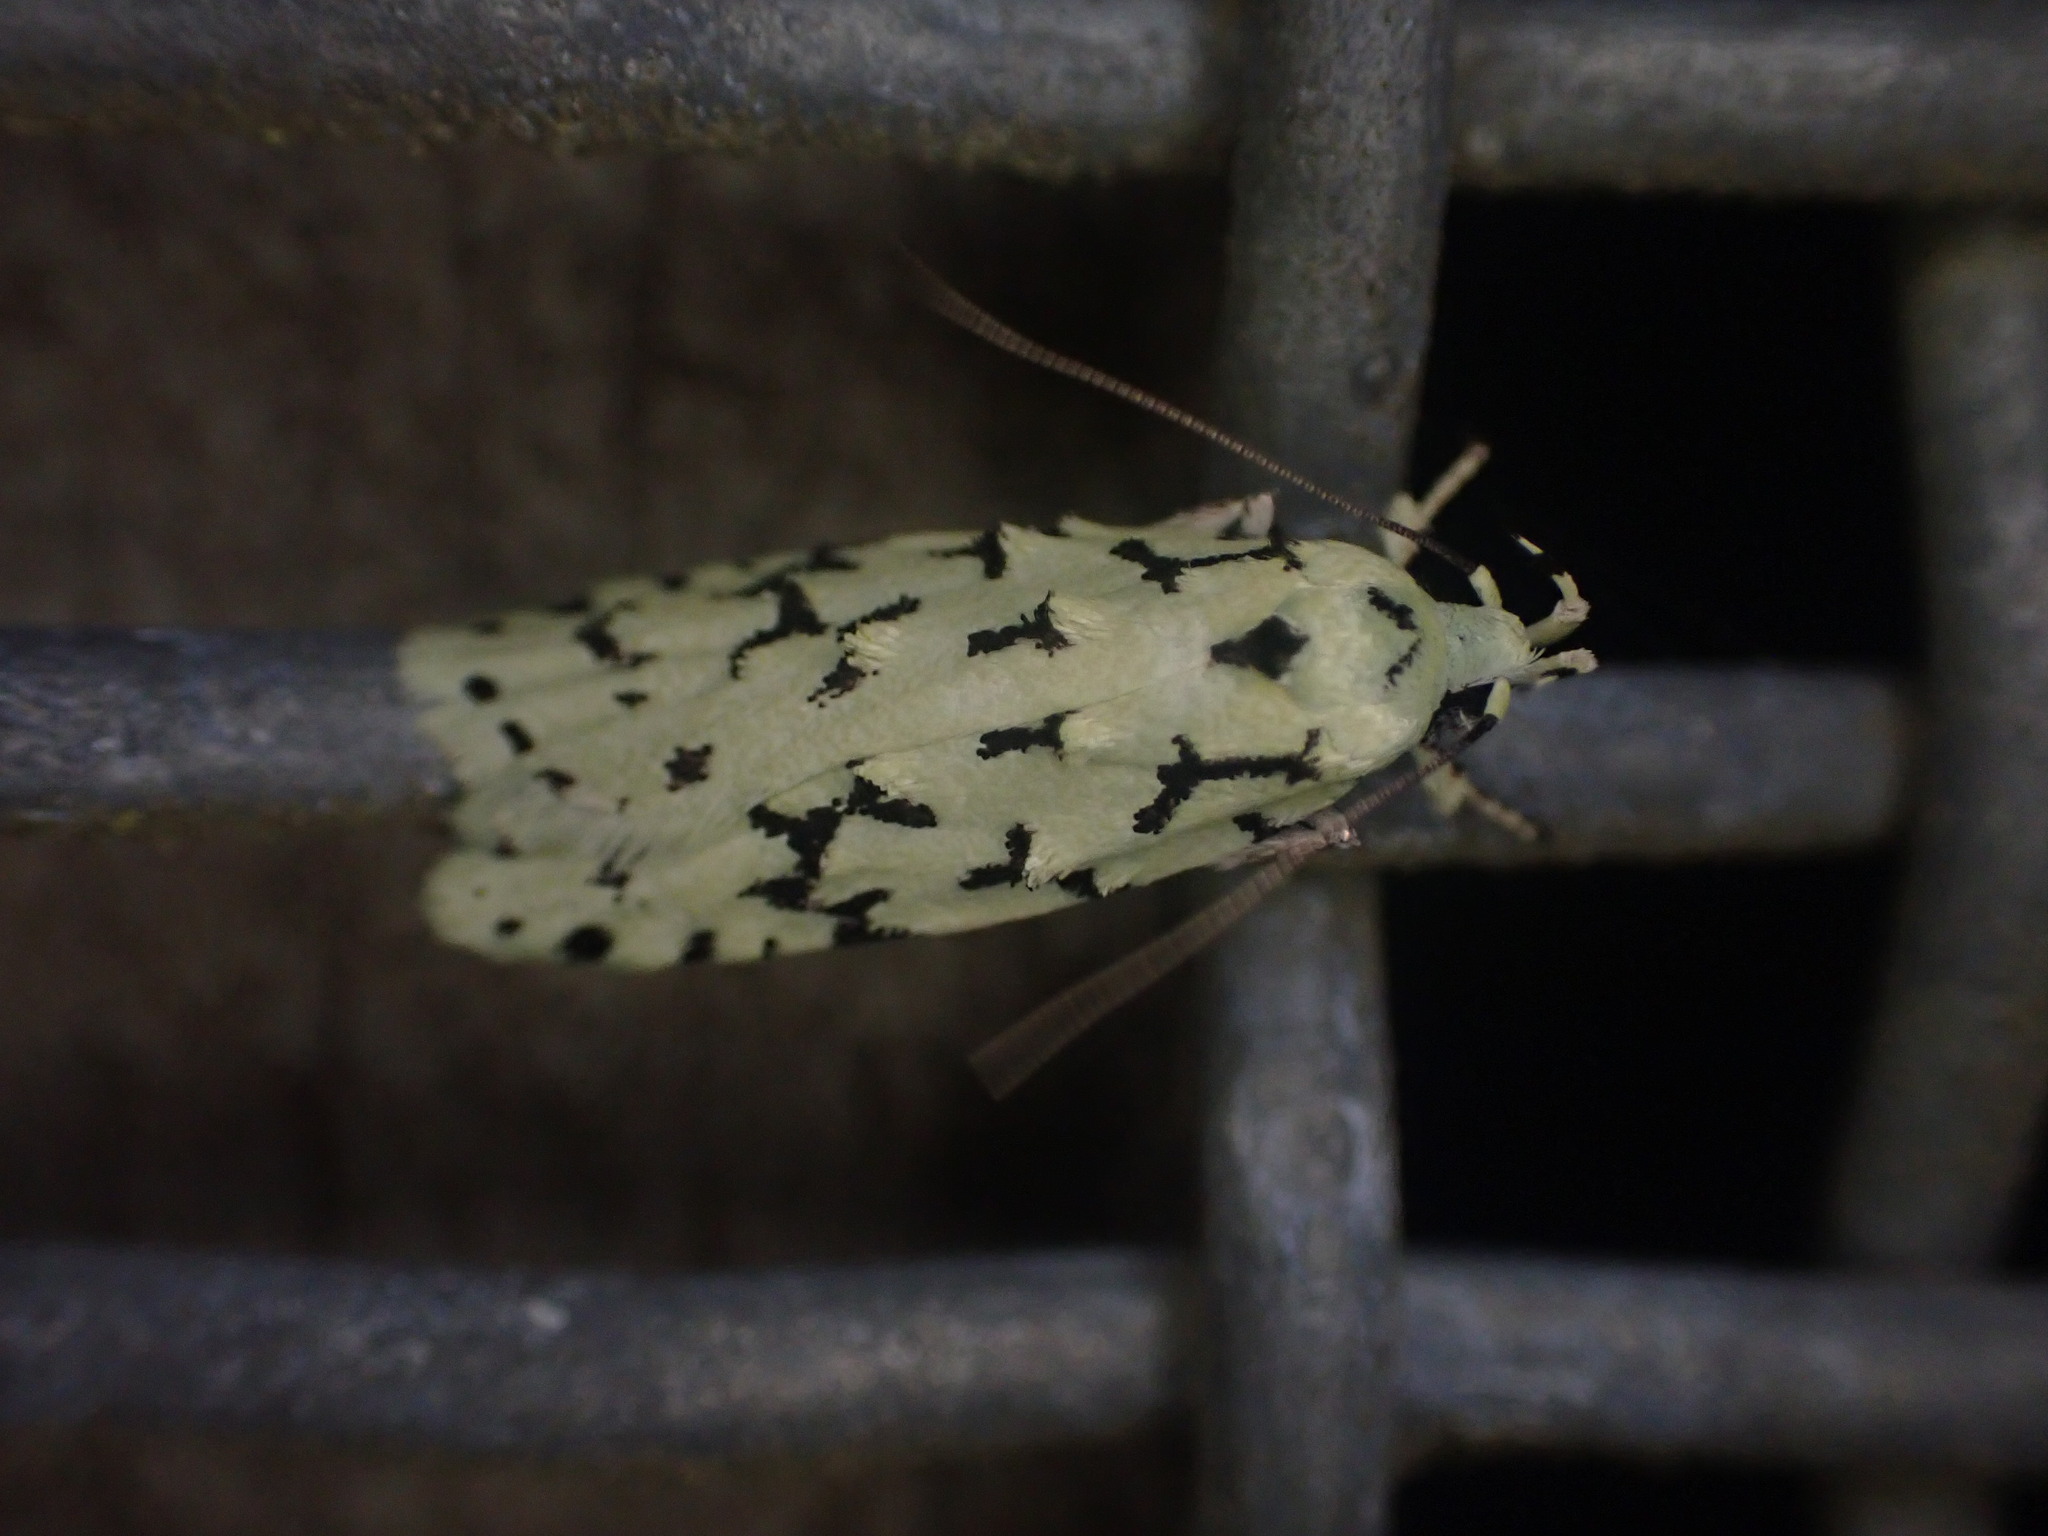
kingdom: Animalia
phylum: Arthropoda
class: Insecta
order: Lepidoptera
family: Oecophoridae
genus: Izatha
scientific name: Izatha huttoni
